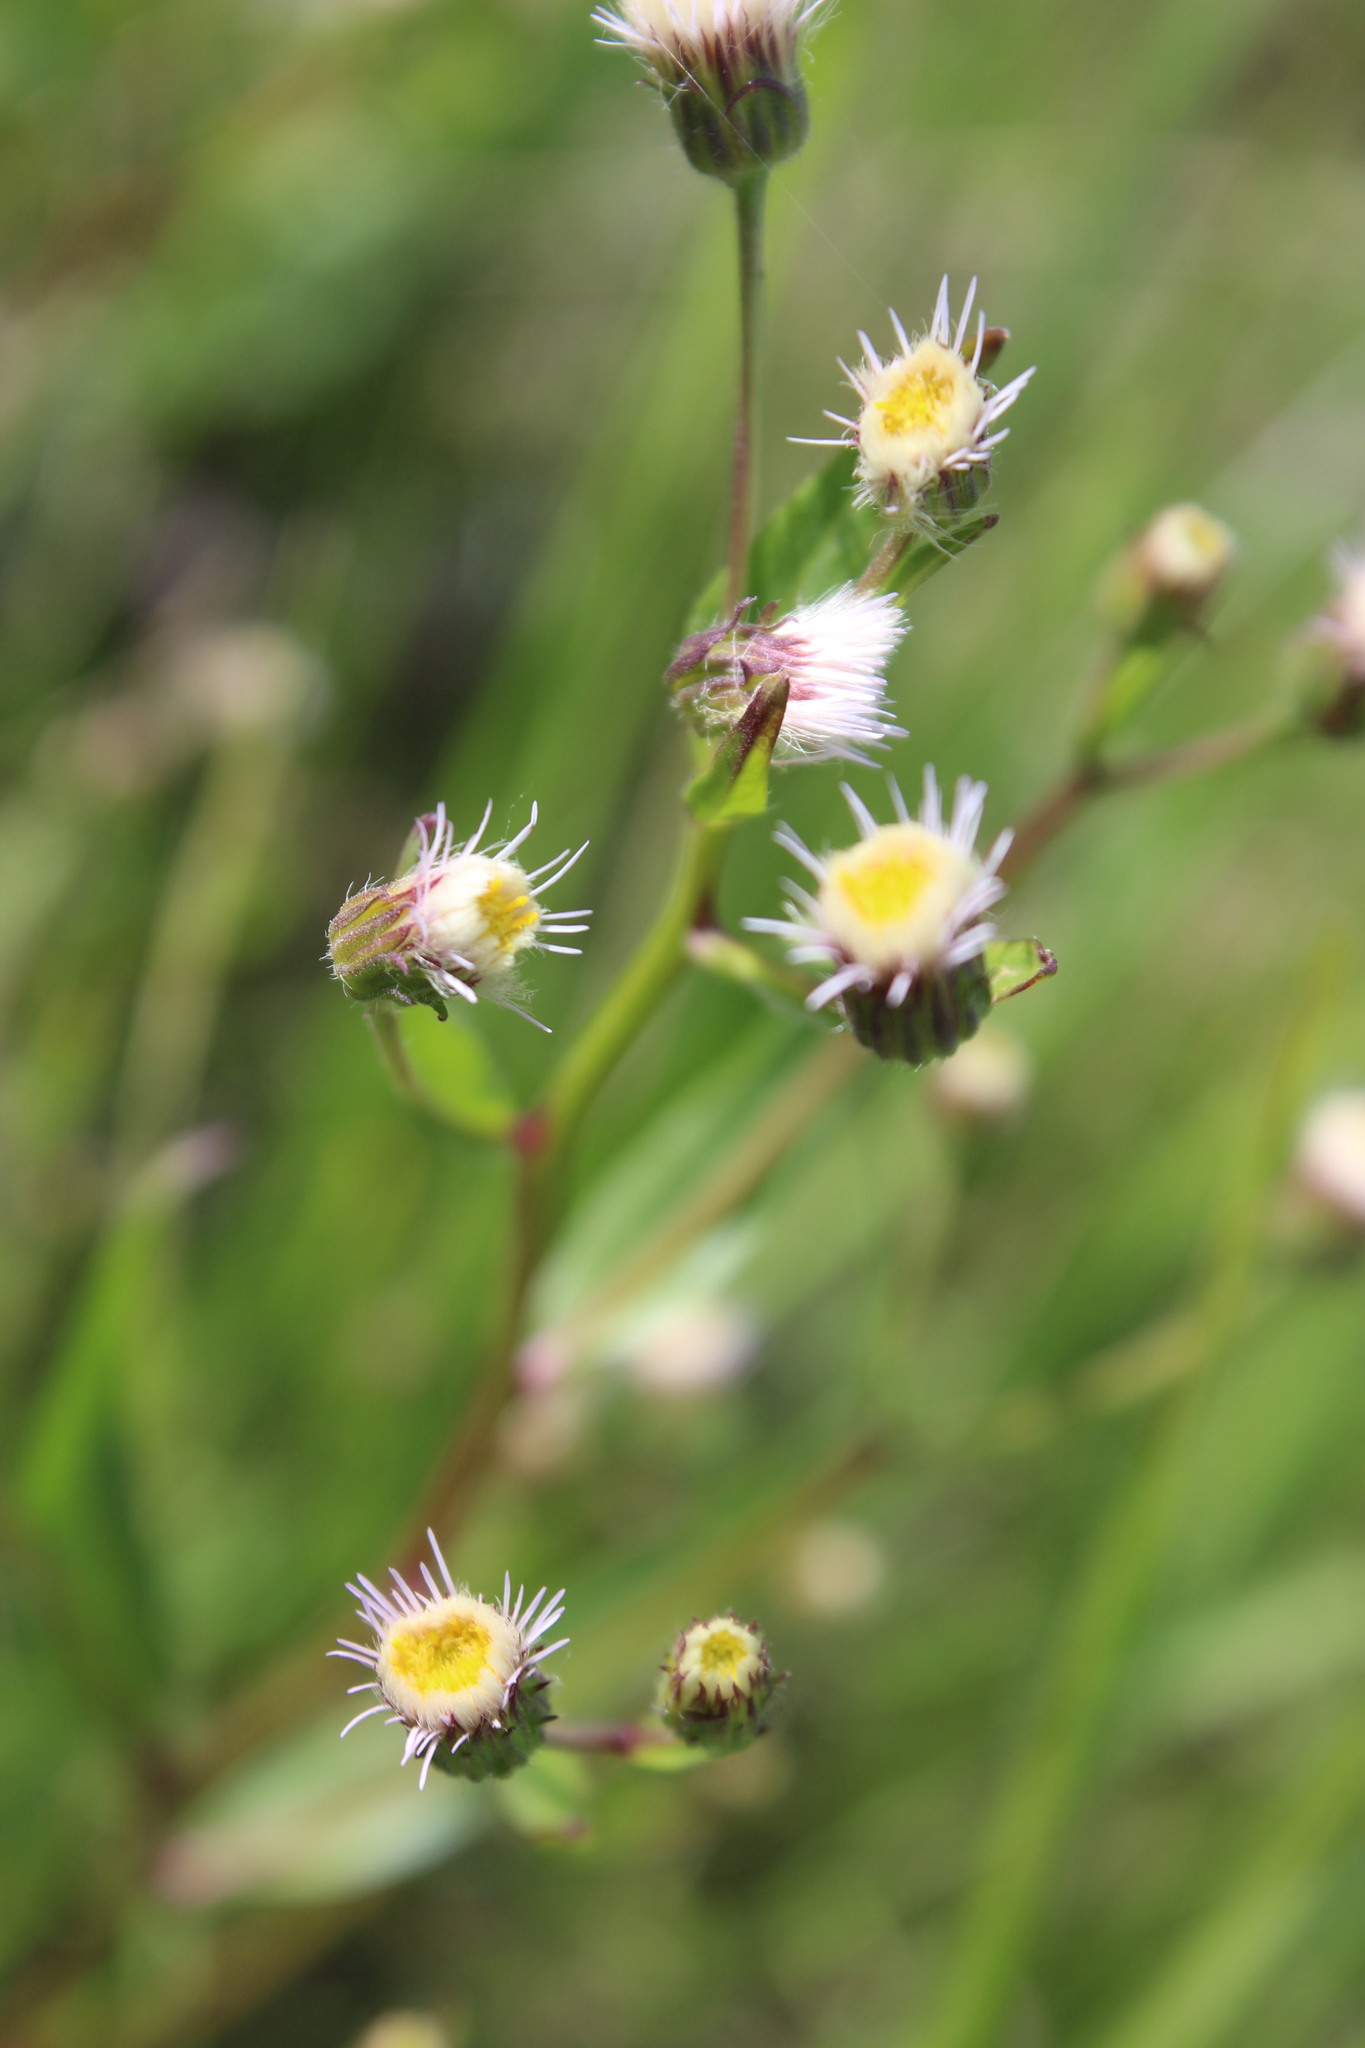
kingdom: Plantae
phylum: Tracheophyta
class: Magnoliopsida
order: Asterales
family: Asteraceae
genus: Erigeron
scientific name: Erigeron acris
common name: Blue fleabane
